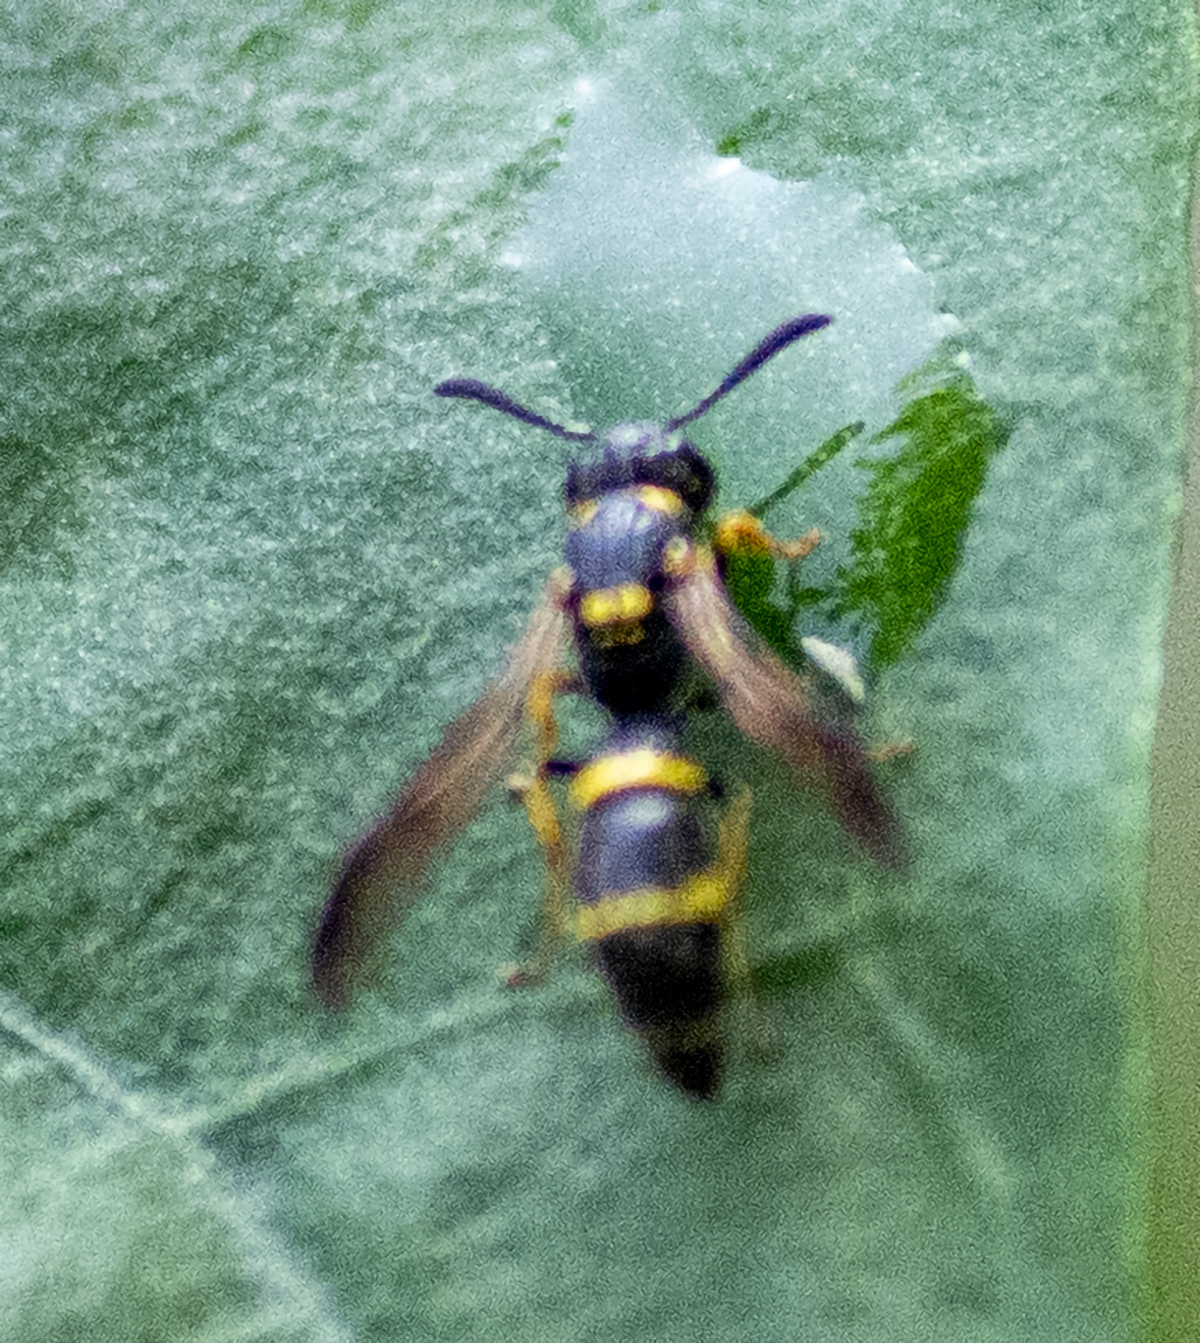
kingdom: Animalia
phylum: Arthropoda
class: Insecta
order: Hymenoptera
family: Eumenidae
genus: Symmorphus
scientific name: Symmorphus
